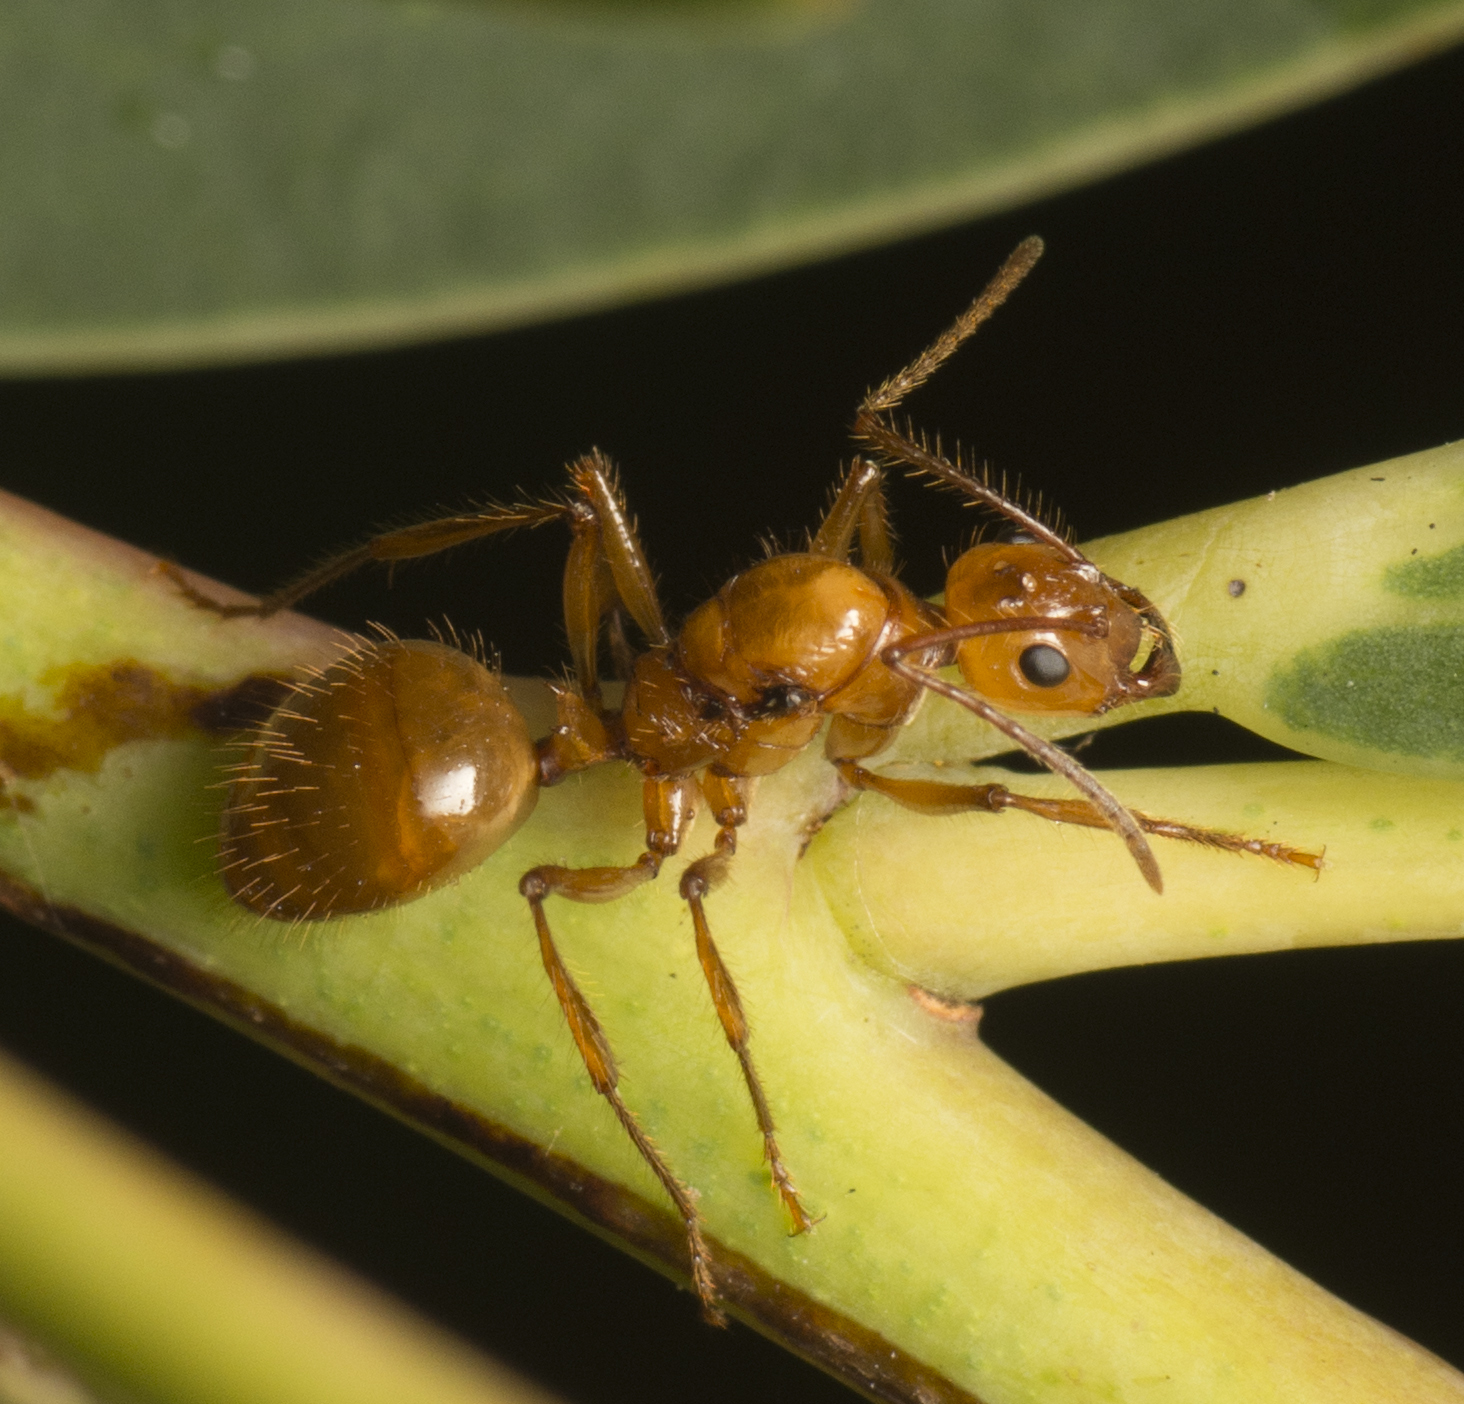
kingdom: Animalia
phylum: Arthropoda
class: Insecta
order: Hymenoptera
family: Formicidae
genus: Notoncus
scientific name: Notoncus spinisquamis
